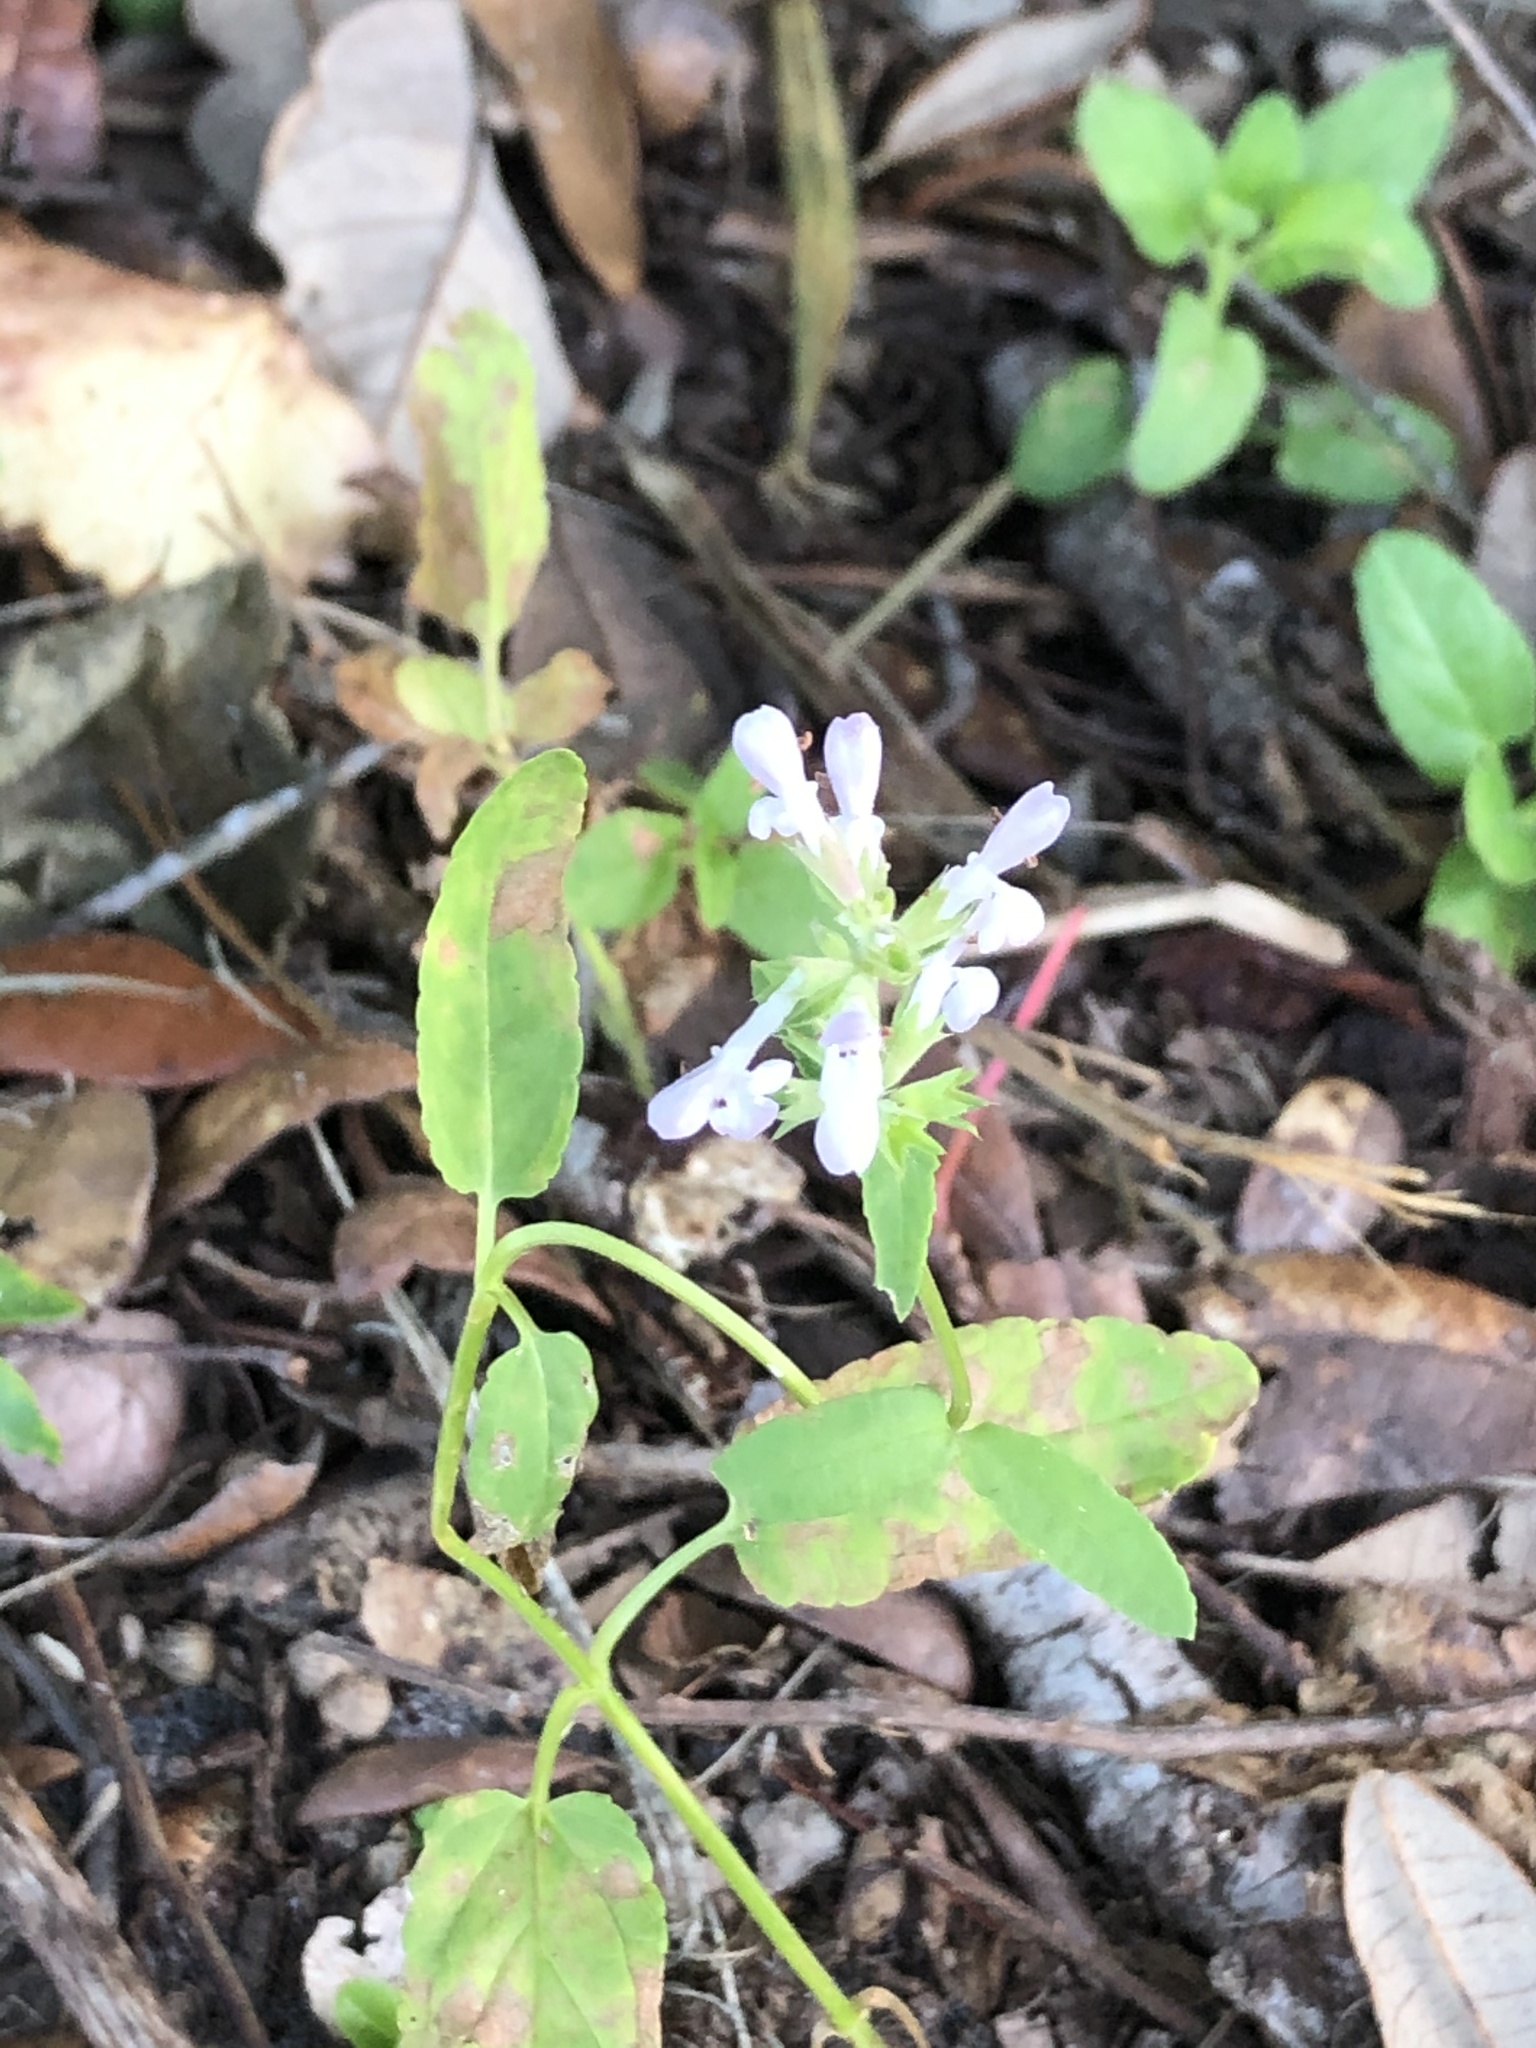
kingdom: Plantae
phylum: Tracheophyta
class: Magnoliopsida
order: Lamiales
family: Lamiaceae
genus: Stachys
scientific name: Stachys floridana
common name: Florida betony
